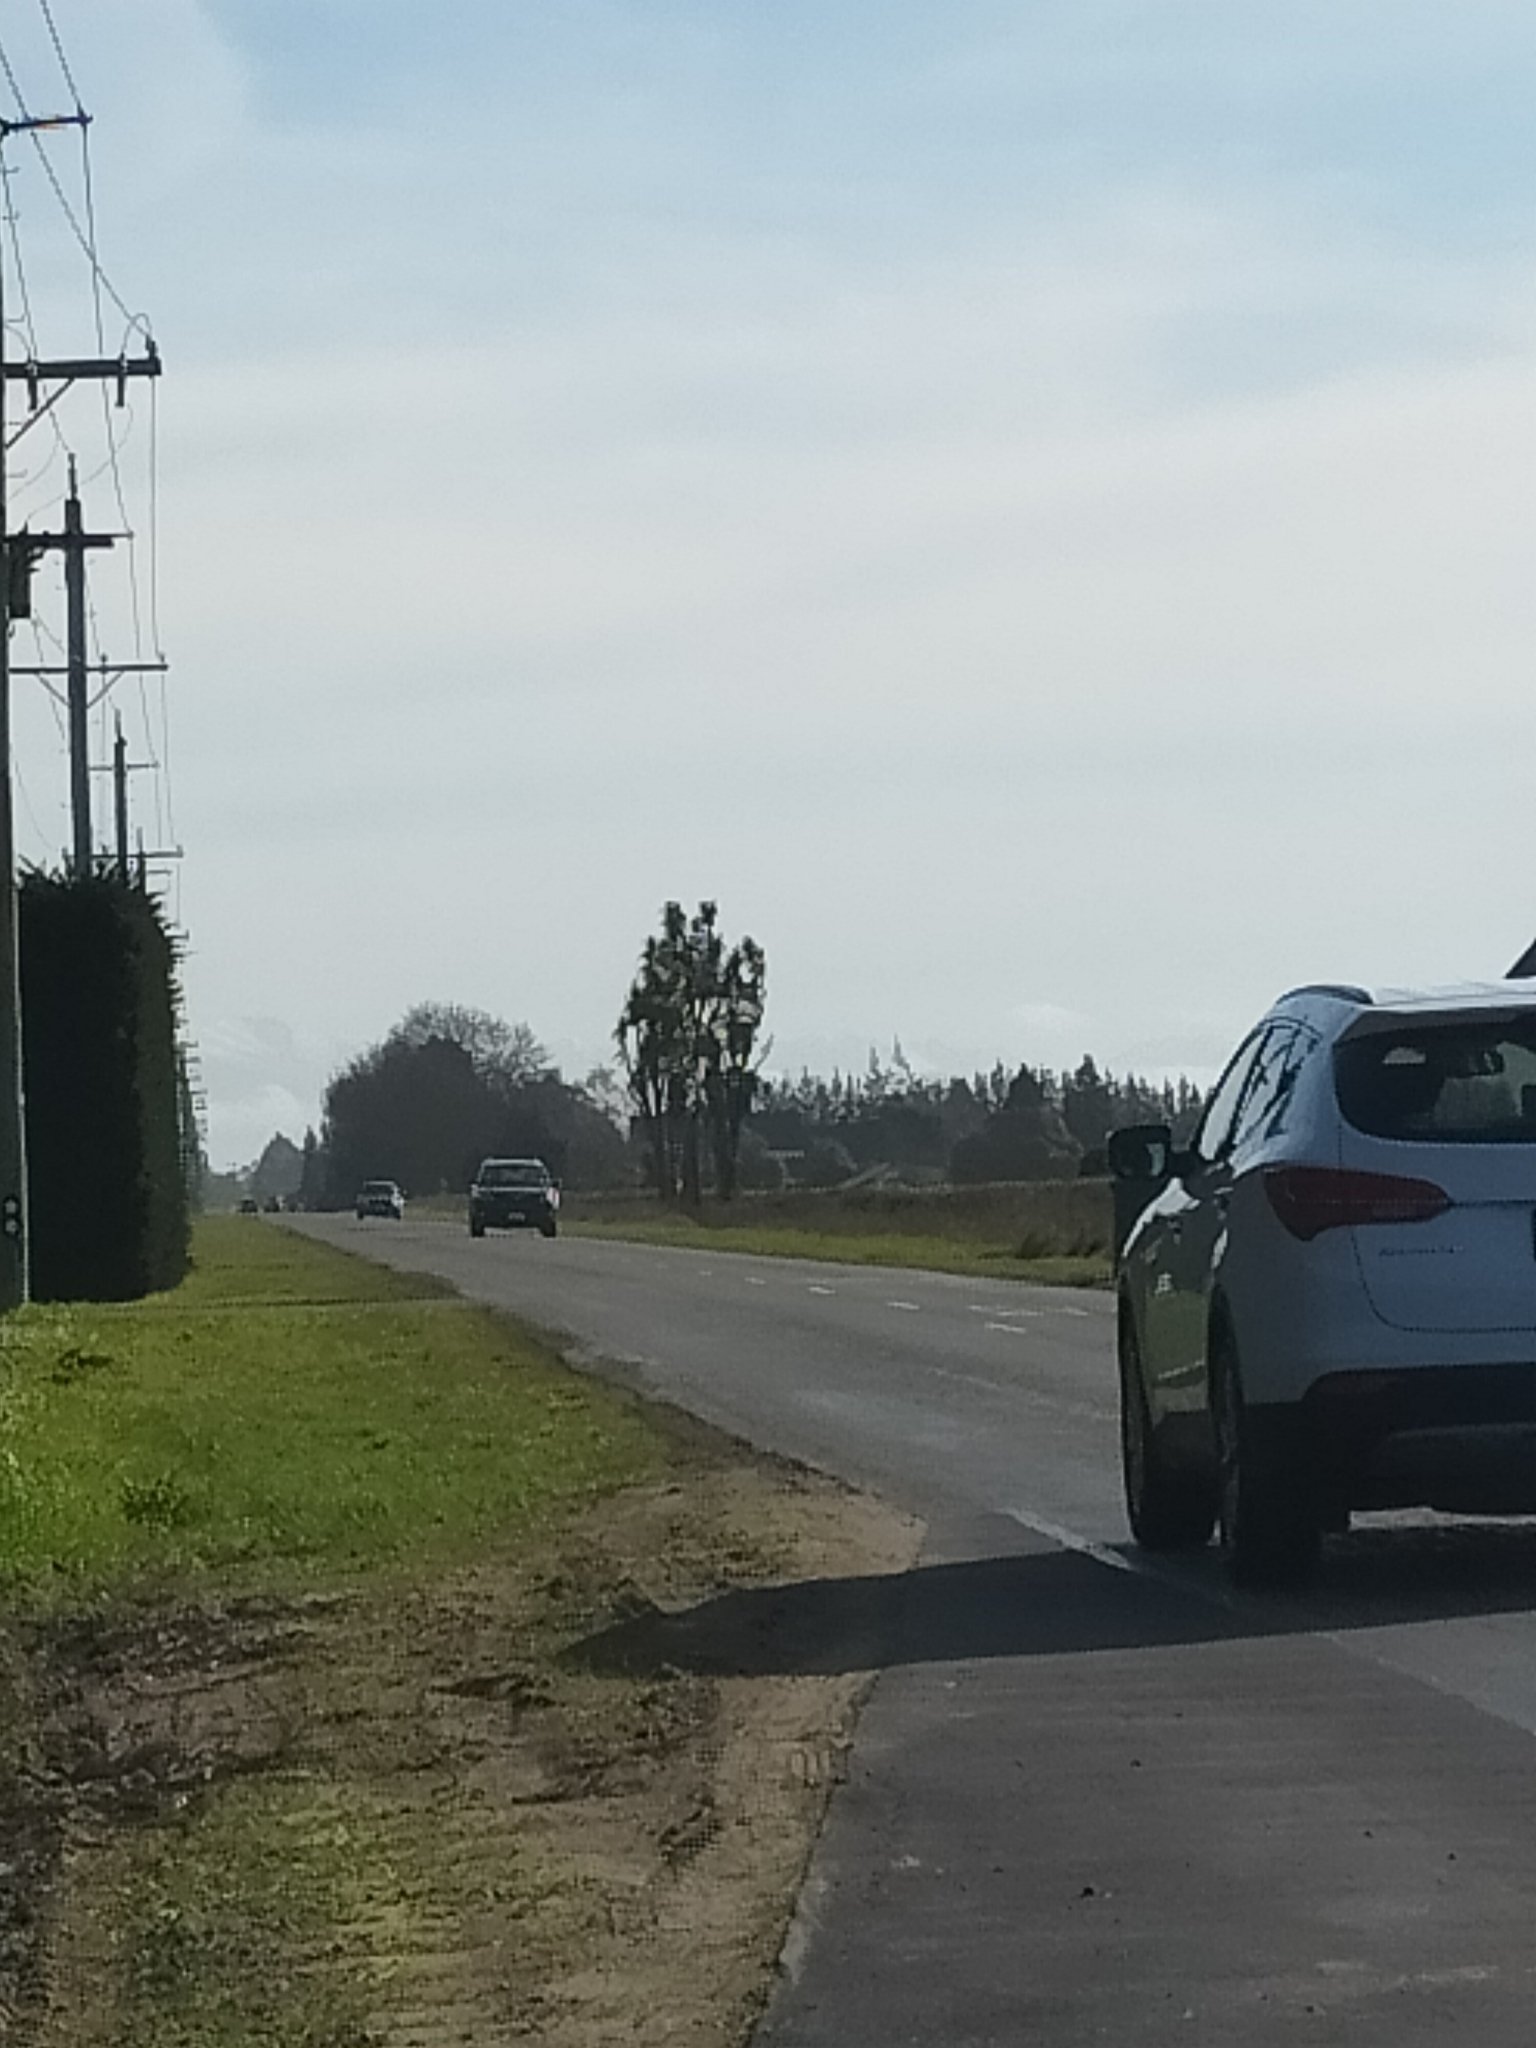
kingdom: Plantae
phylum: Tracheophyta
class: Liliopsida
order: Asparagales
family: Asparagaceae
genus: Cordyline
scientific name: Cordyline australis
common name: Cabbage-palm
